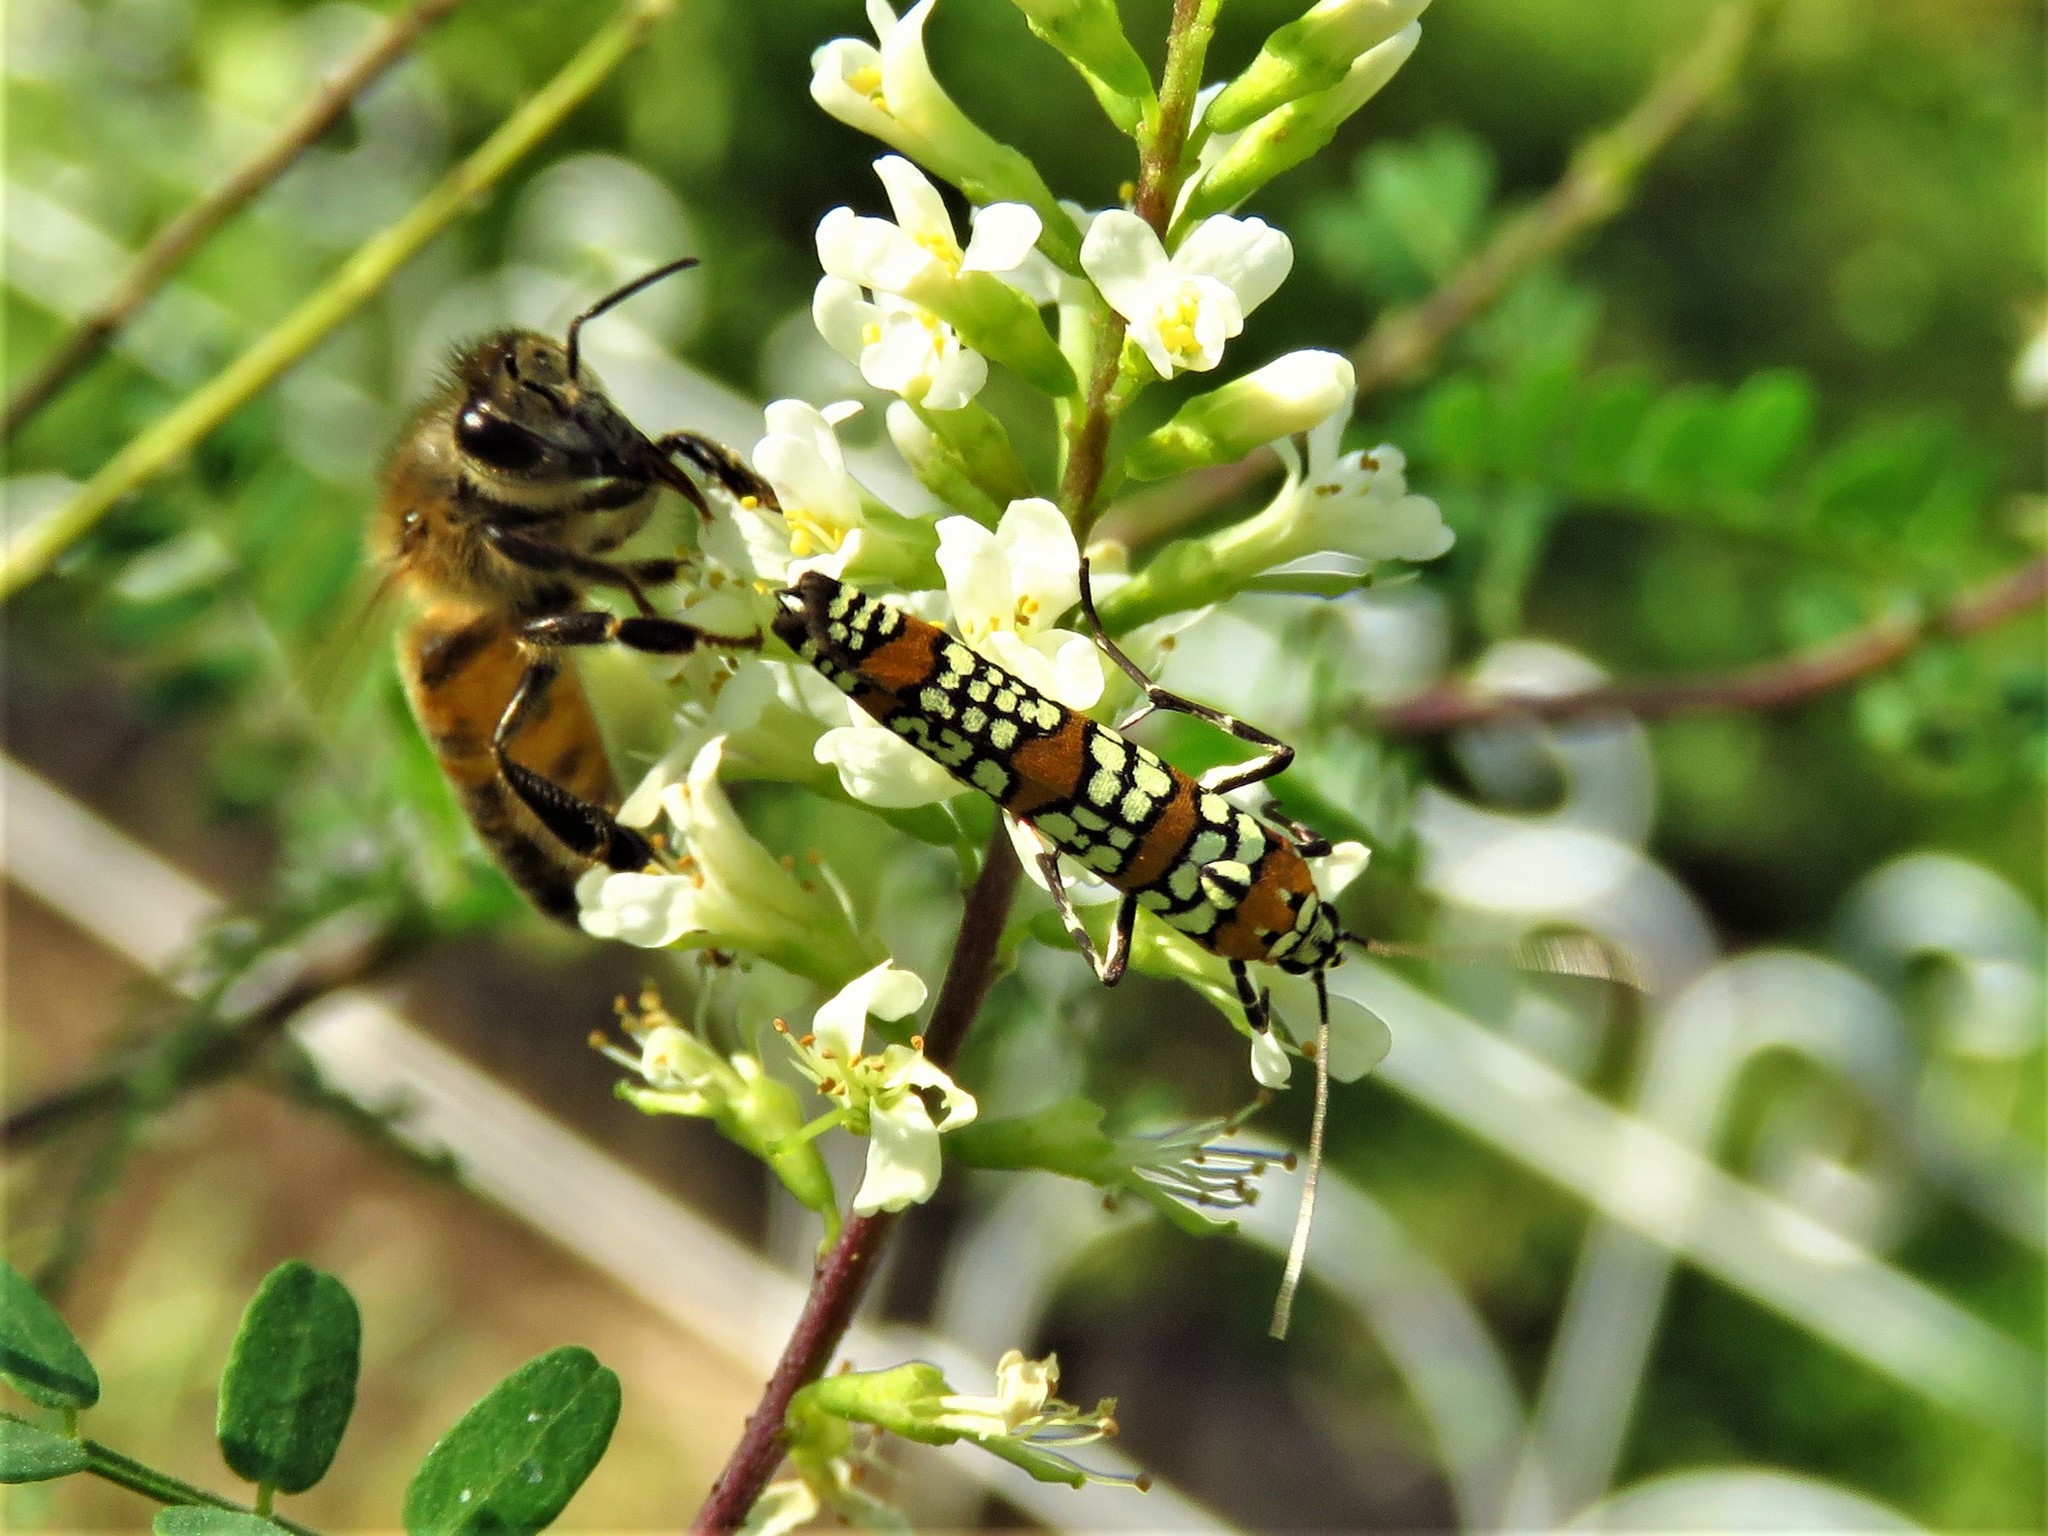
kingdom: Animalia
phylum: Arthropoda
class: Insecta
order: Lepidoptera
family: Attevidae
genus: Atteva
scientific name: Atteva punctella
